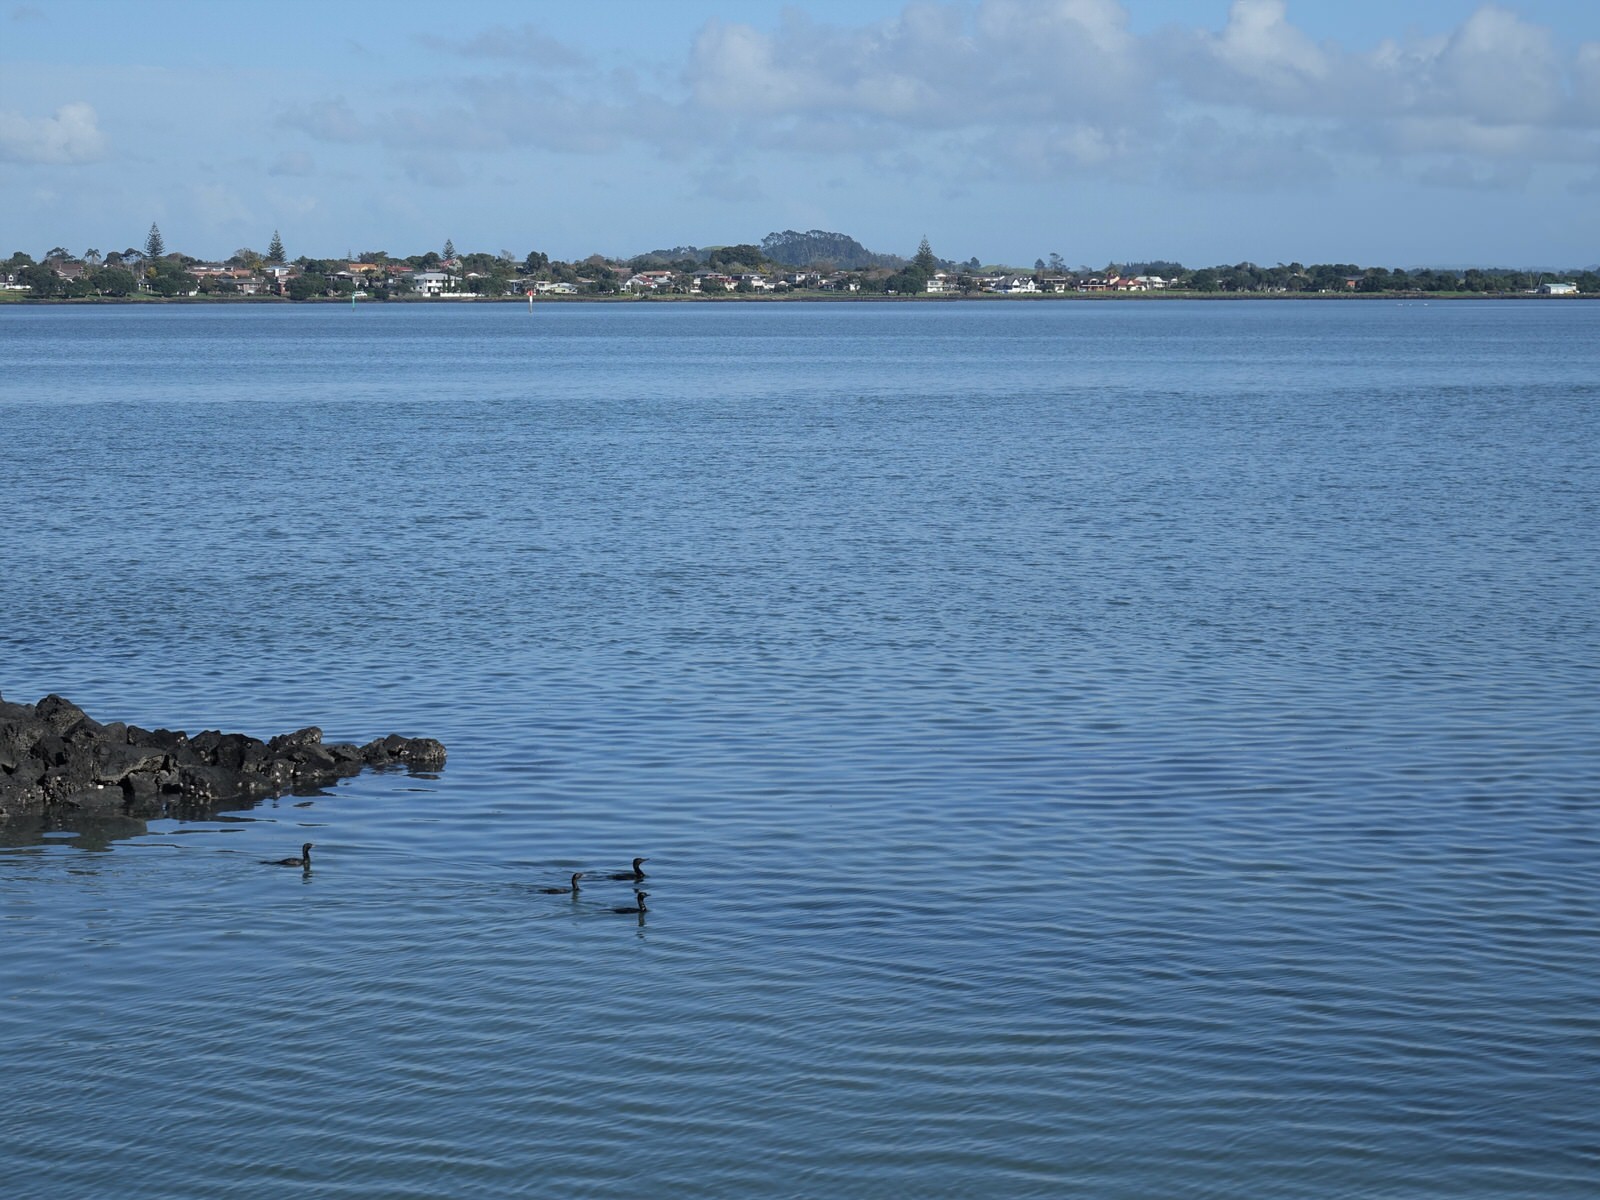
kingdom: Animalia
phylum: Chordata
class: Aves
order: Suliformes
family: Phalacrocoracidae
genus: Phalacrocorax
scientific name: Phalacrocorax sulcirostris
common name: Little black cormorant
